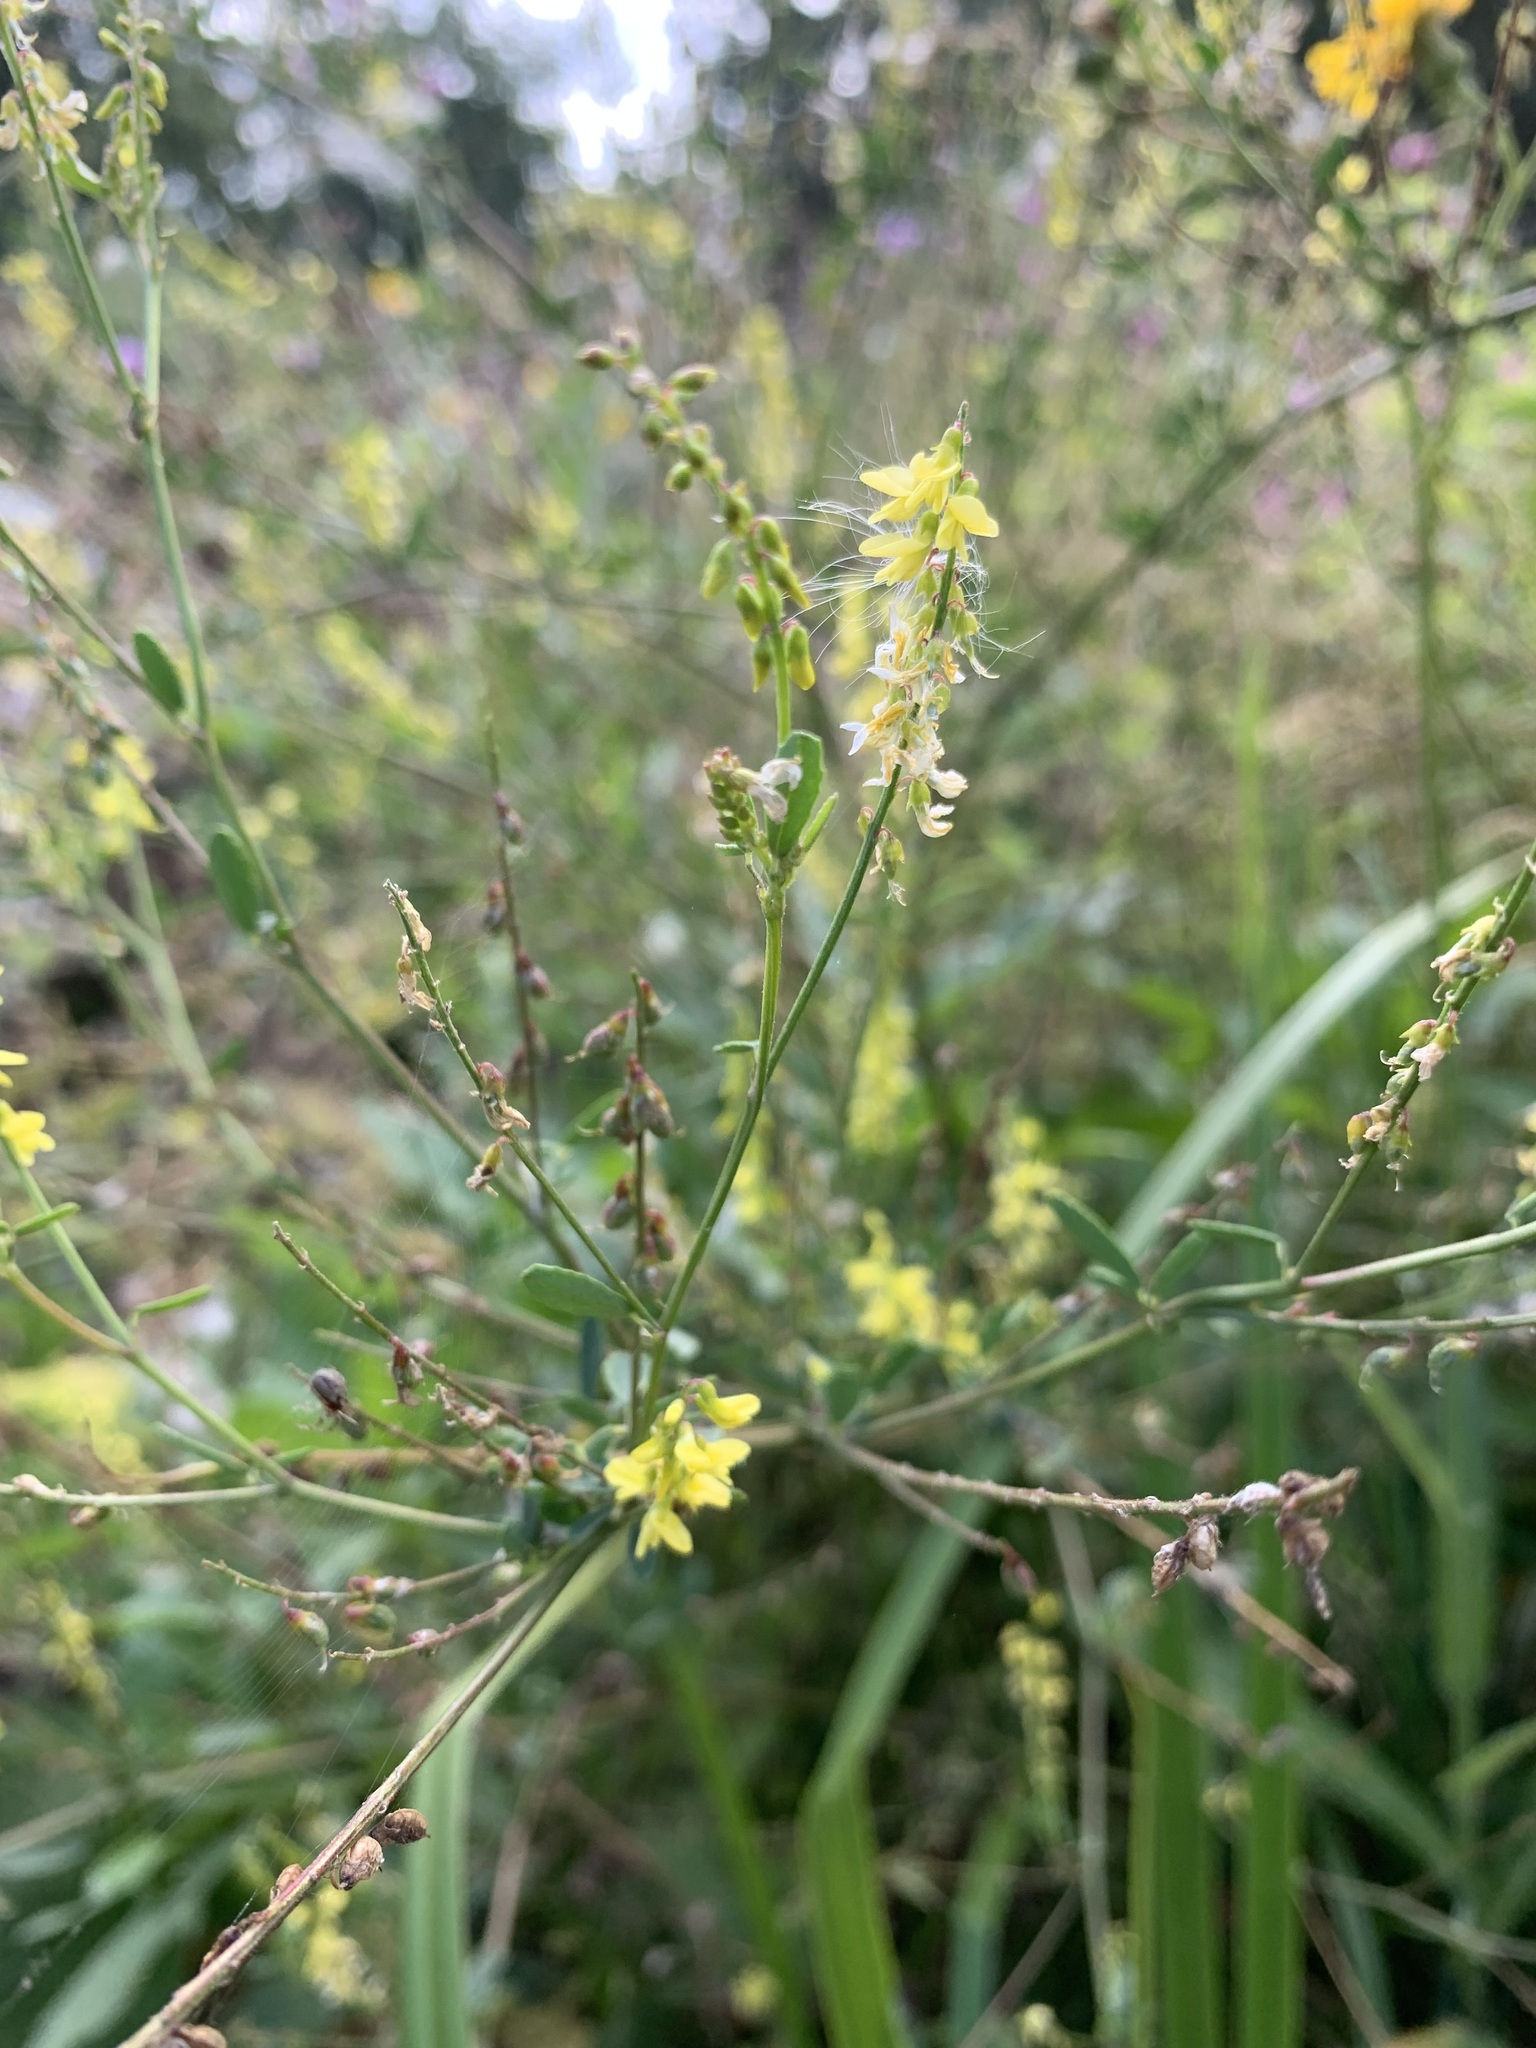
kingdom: Plantae
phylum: Tracheophyta
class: Magnoliopsida
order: Fabales
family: Fabaceae
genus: Melilotus
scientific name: Melilotus officinalis
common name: Sweetclover
